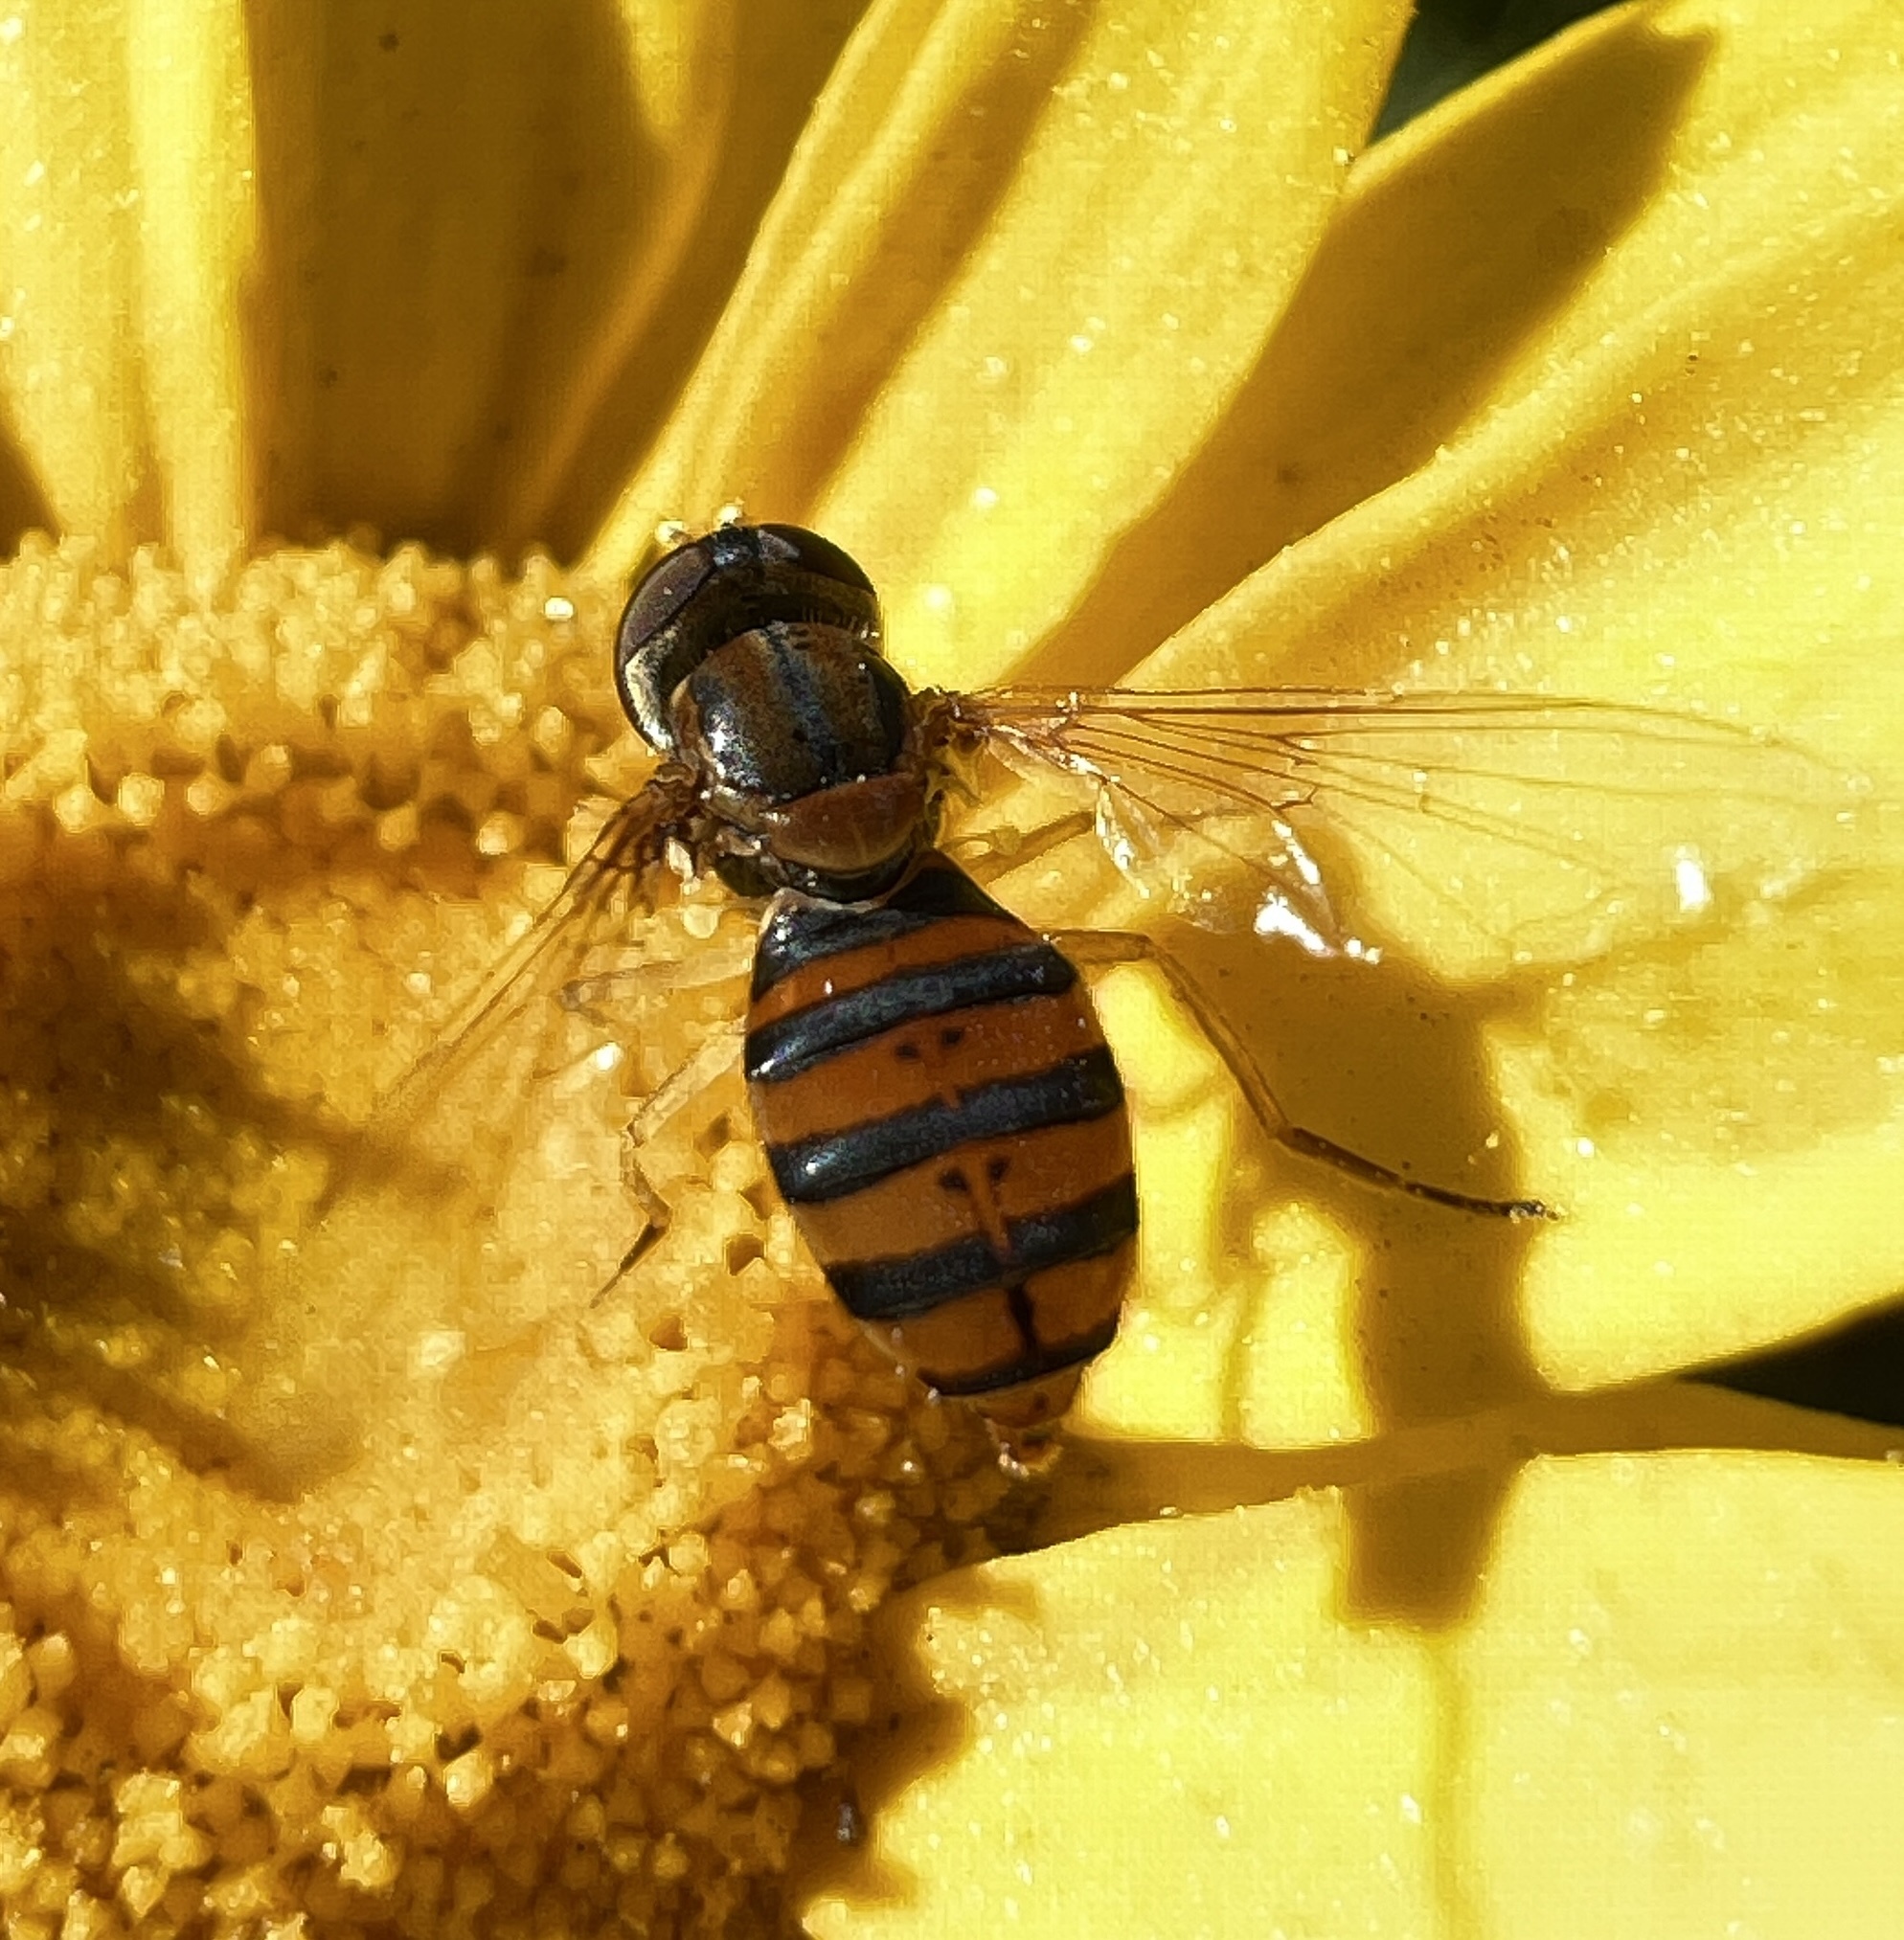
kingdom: Animalia
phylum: Arthropoda
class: Insecta
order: Diptera
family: Syrphidae
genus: Toxomerus
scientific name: Toxomerus
